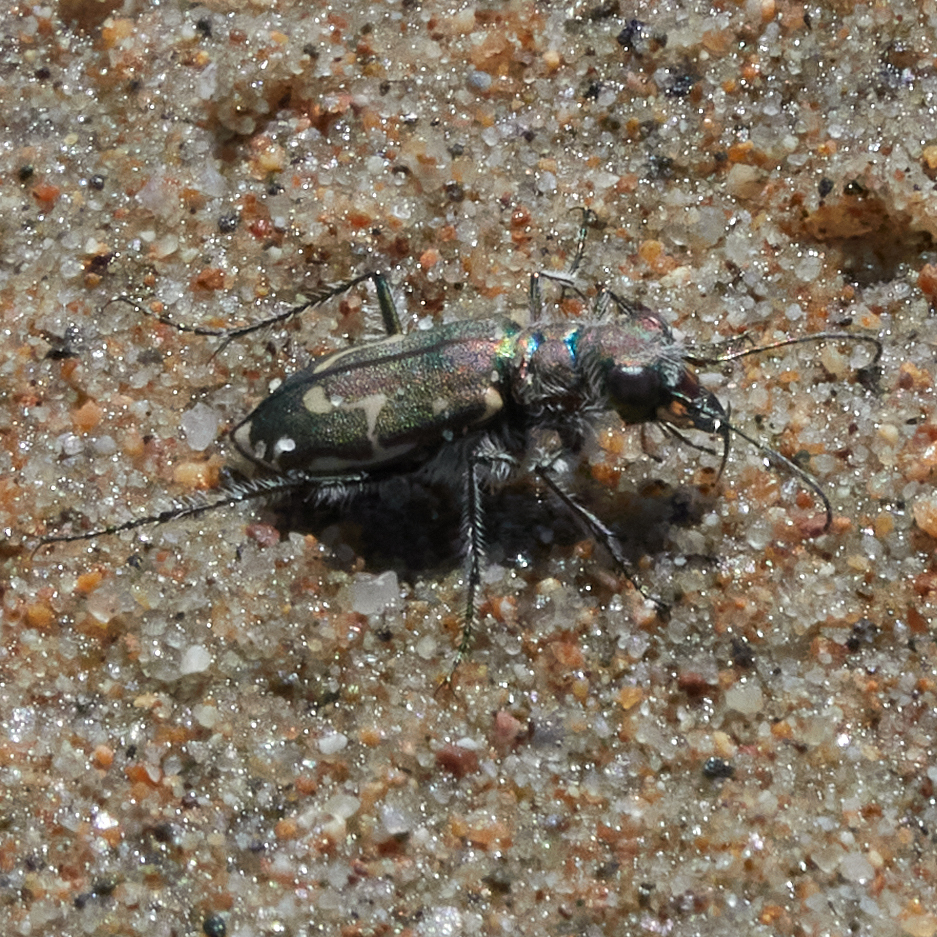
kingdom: Animalia
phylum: Arthropoda
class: Insecta
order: Coleoptera
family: Carabidae
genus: Cicindela
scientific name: Cicindela hirticollis
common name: Hairy-necked tiger beetle
